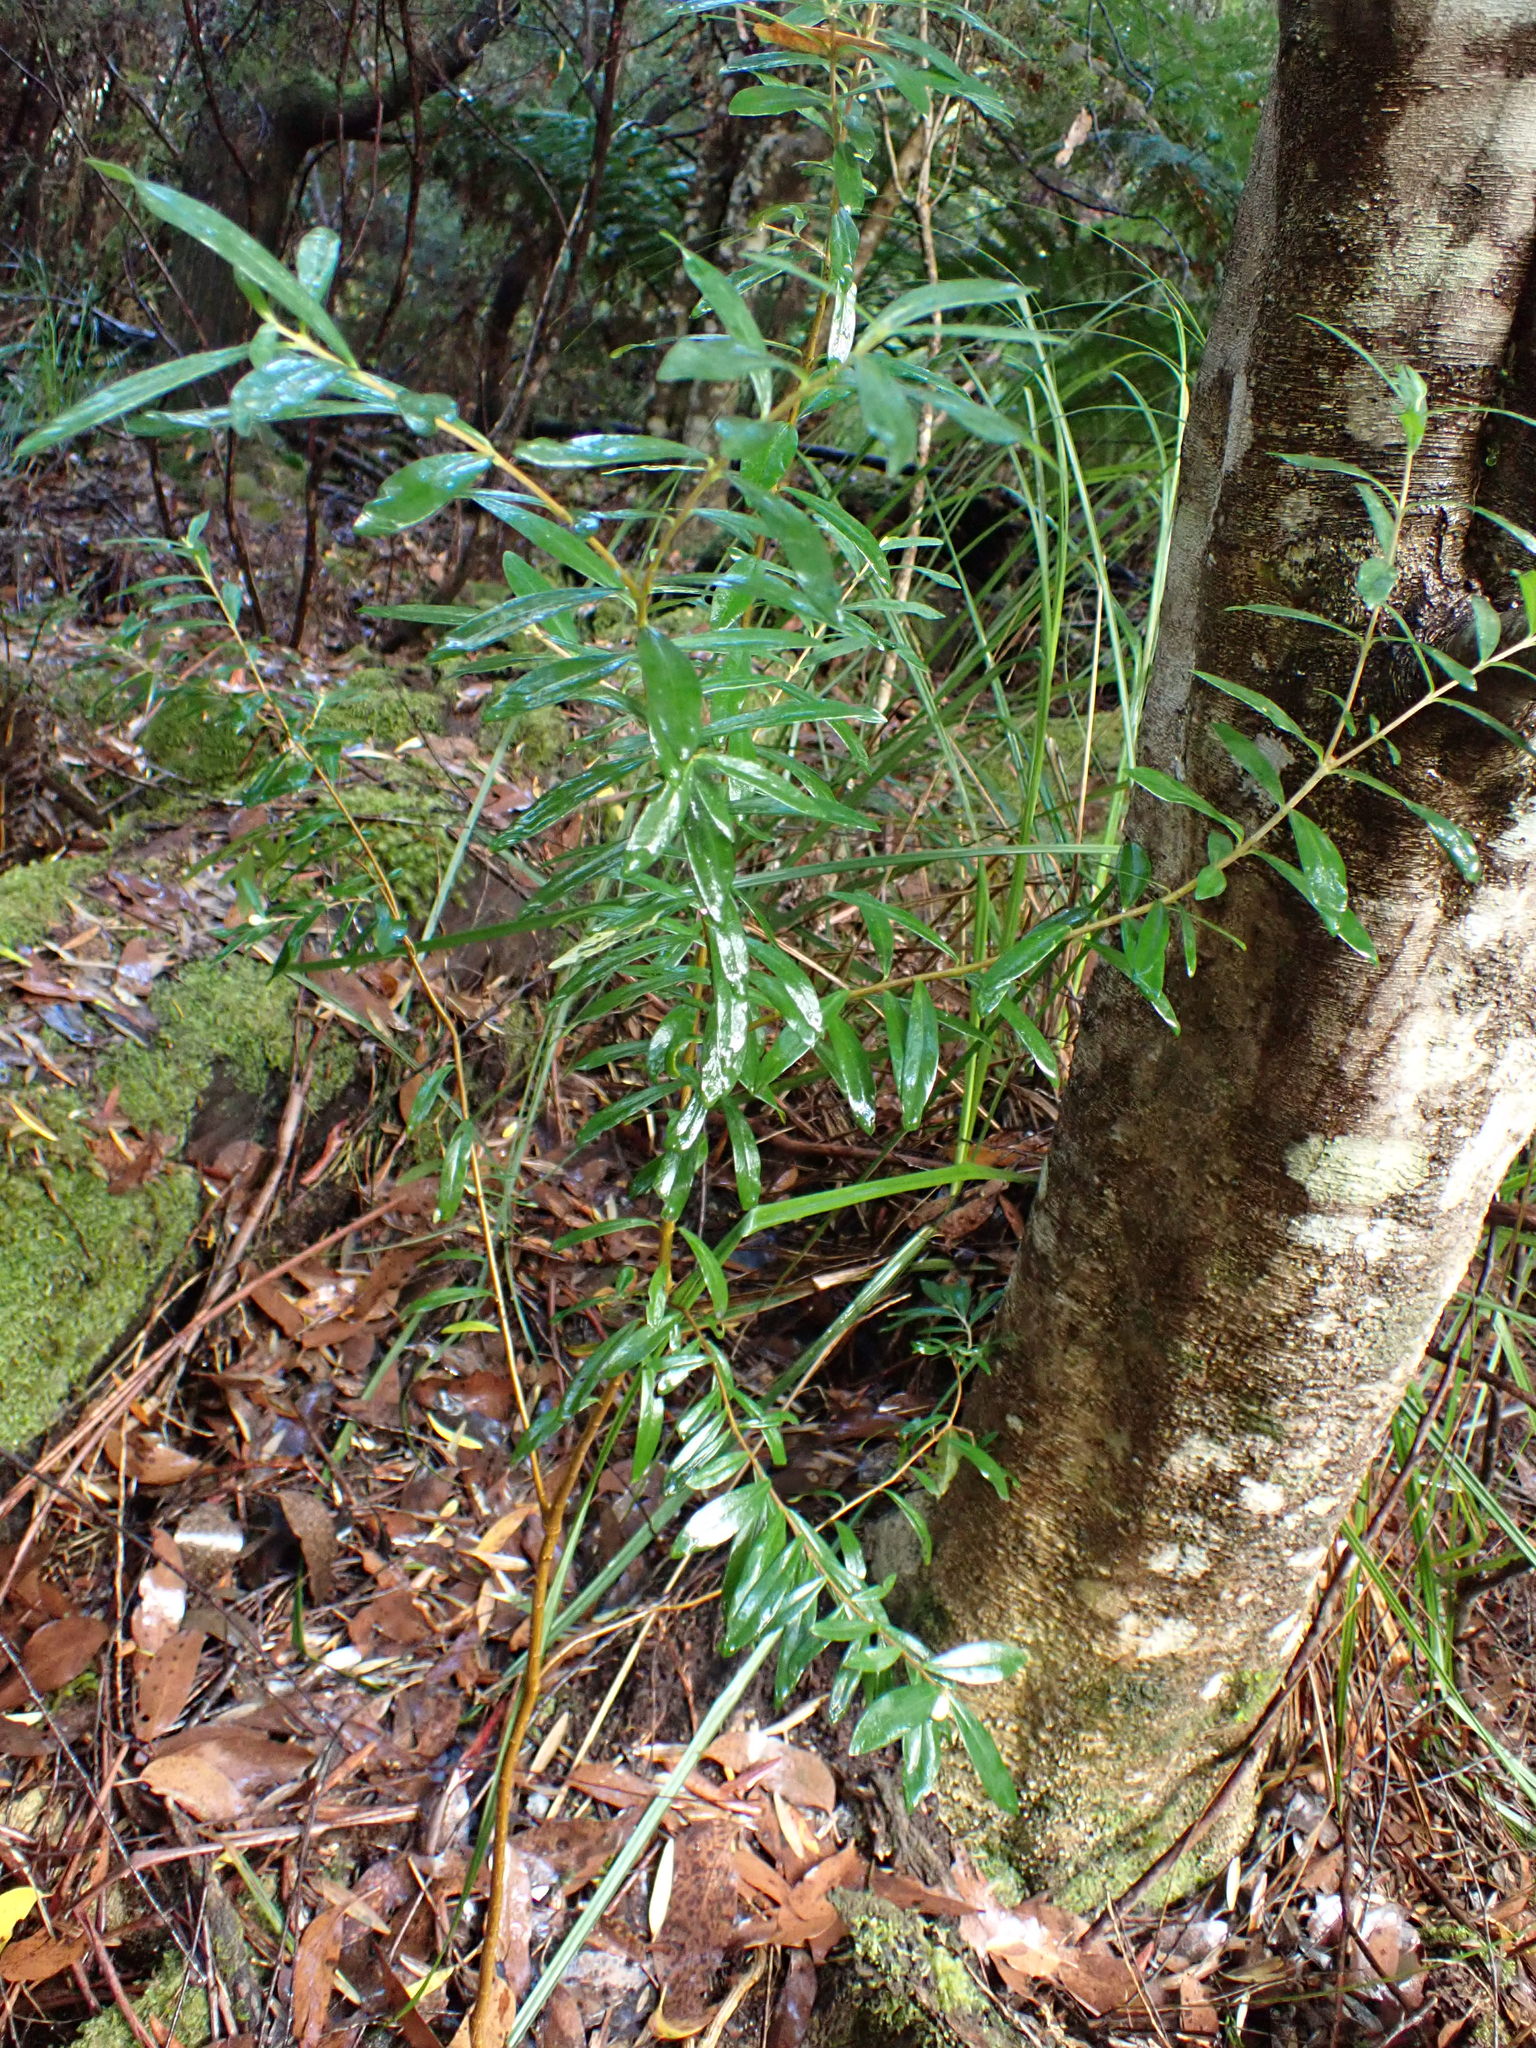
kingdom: Plantae
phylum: Tracheophyta
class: Magnoliopsida
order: Malvales
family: Thymelaeaceae
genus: Pimelea
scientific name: Pimelea drupacea
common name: Cherry riceflower
